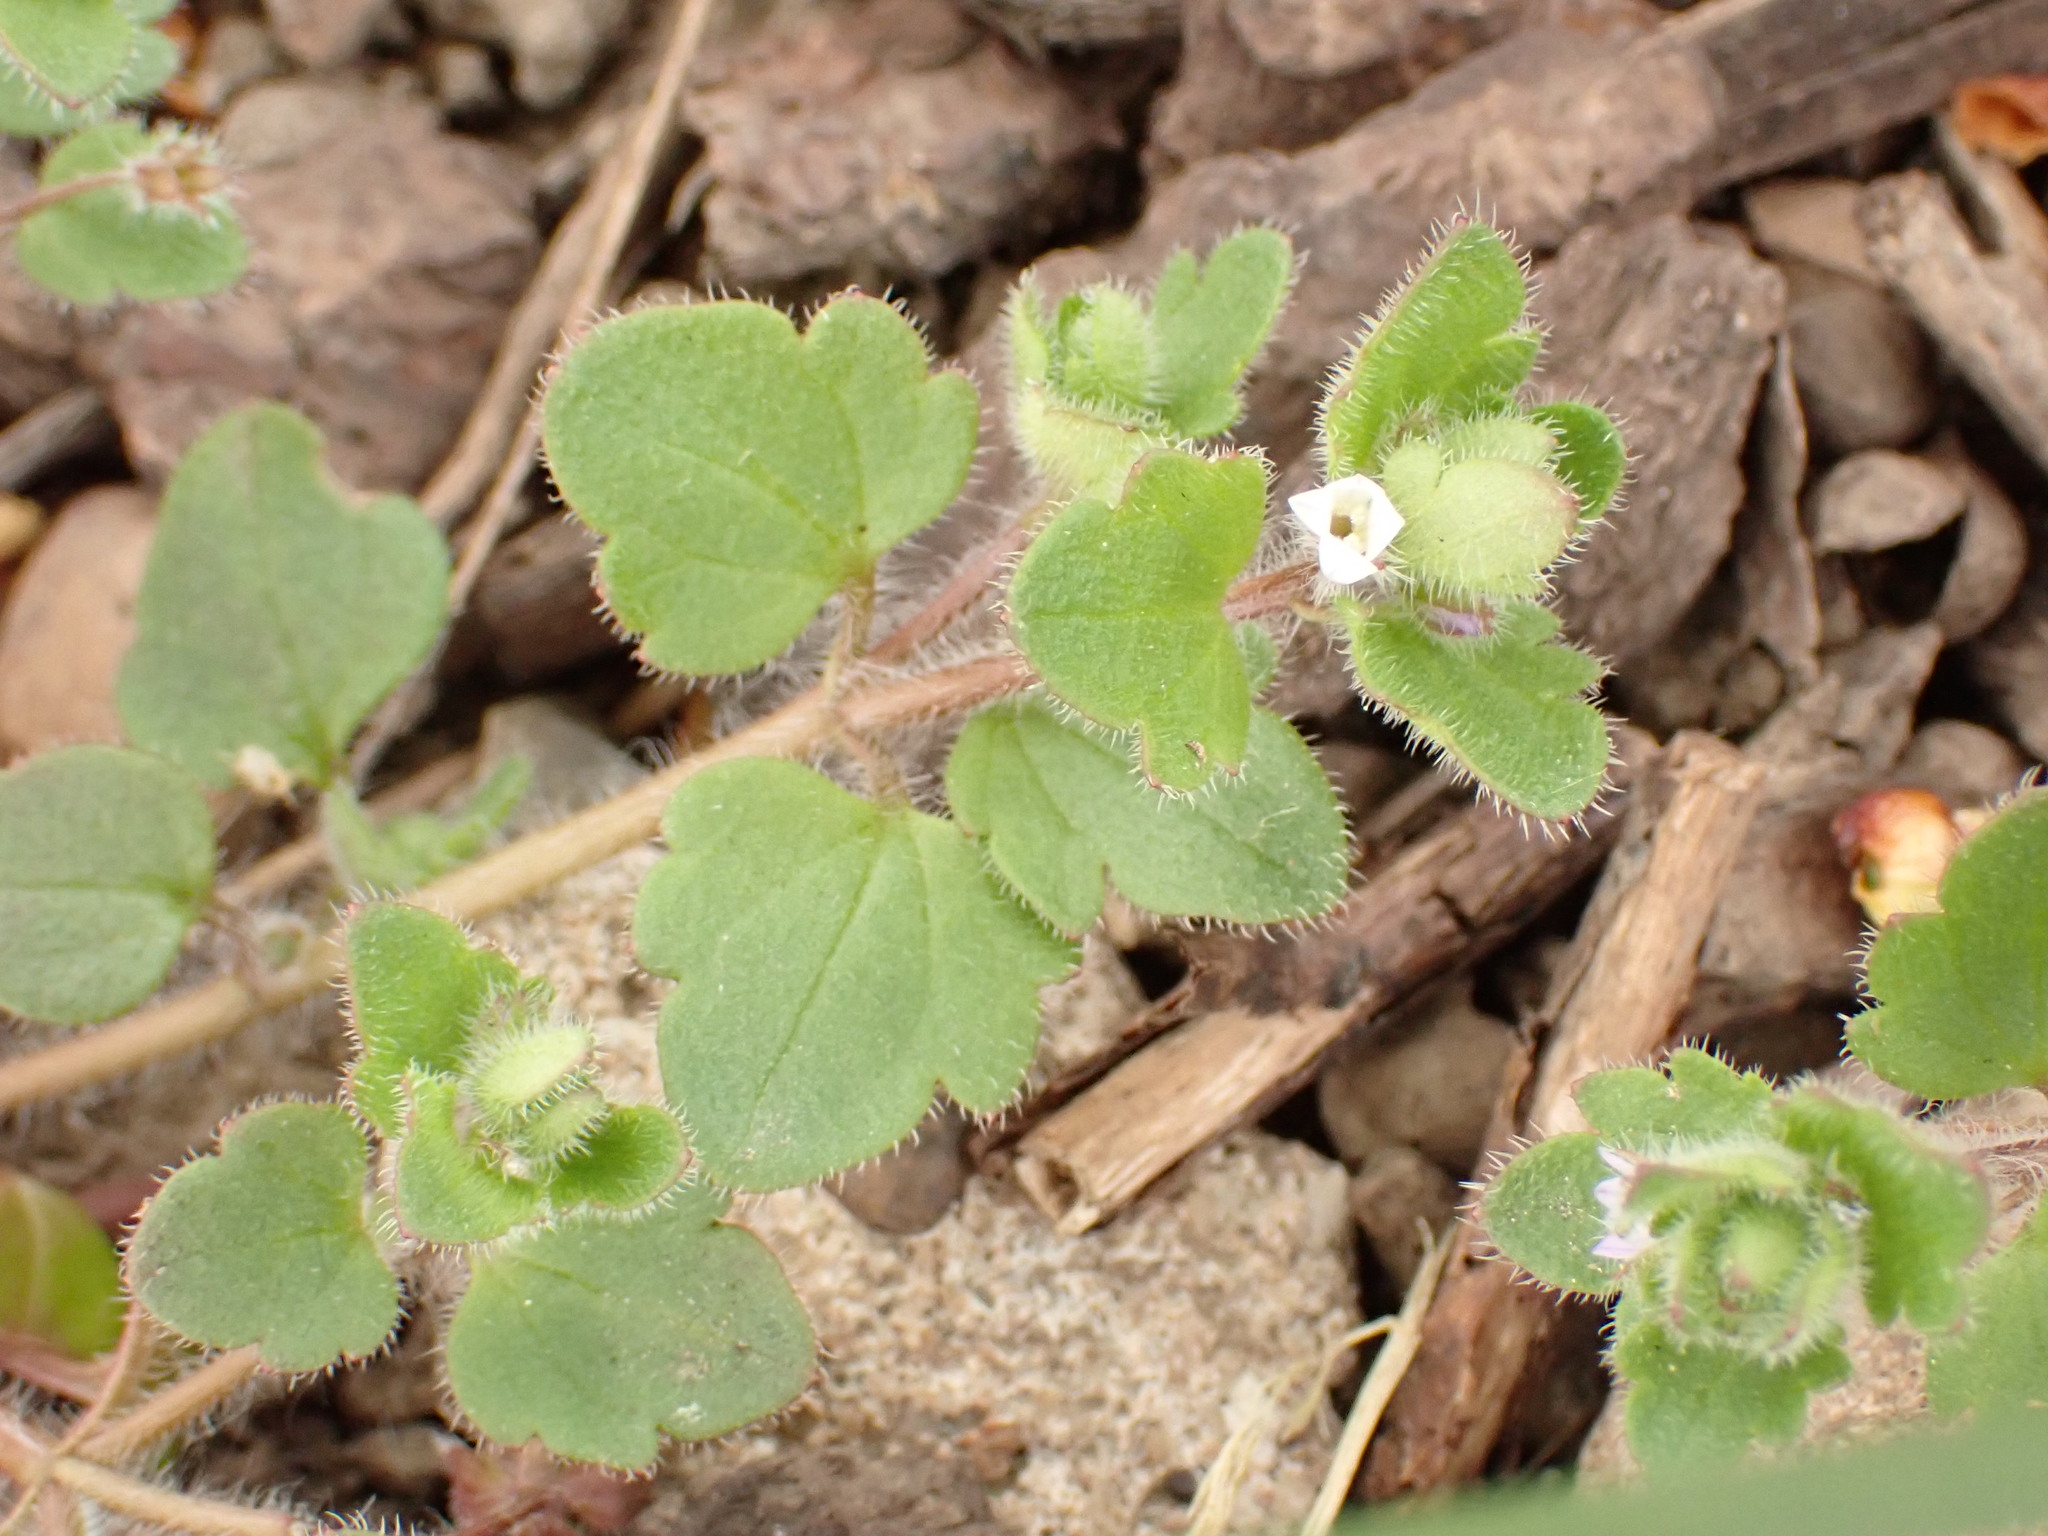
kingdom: Plantae
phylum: Tracheophyta
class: Magnoliopsida
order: Lamiales
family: Plantaginaceae
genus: Veronica
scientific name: Veronica sublobata
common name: False ivy-leaved speedwell
